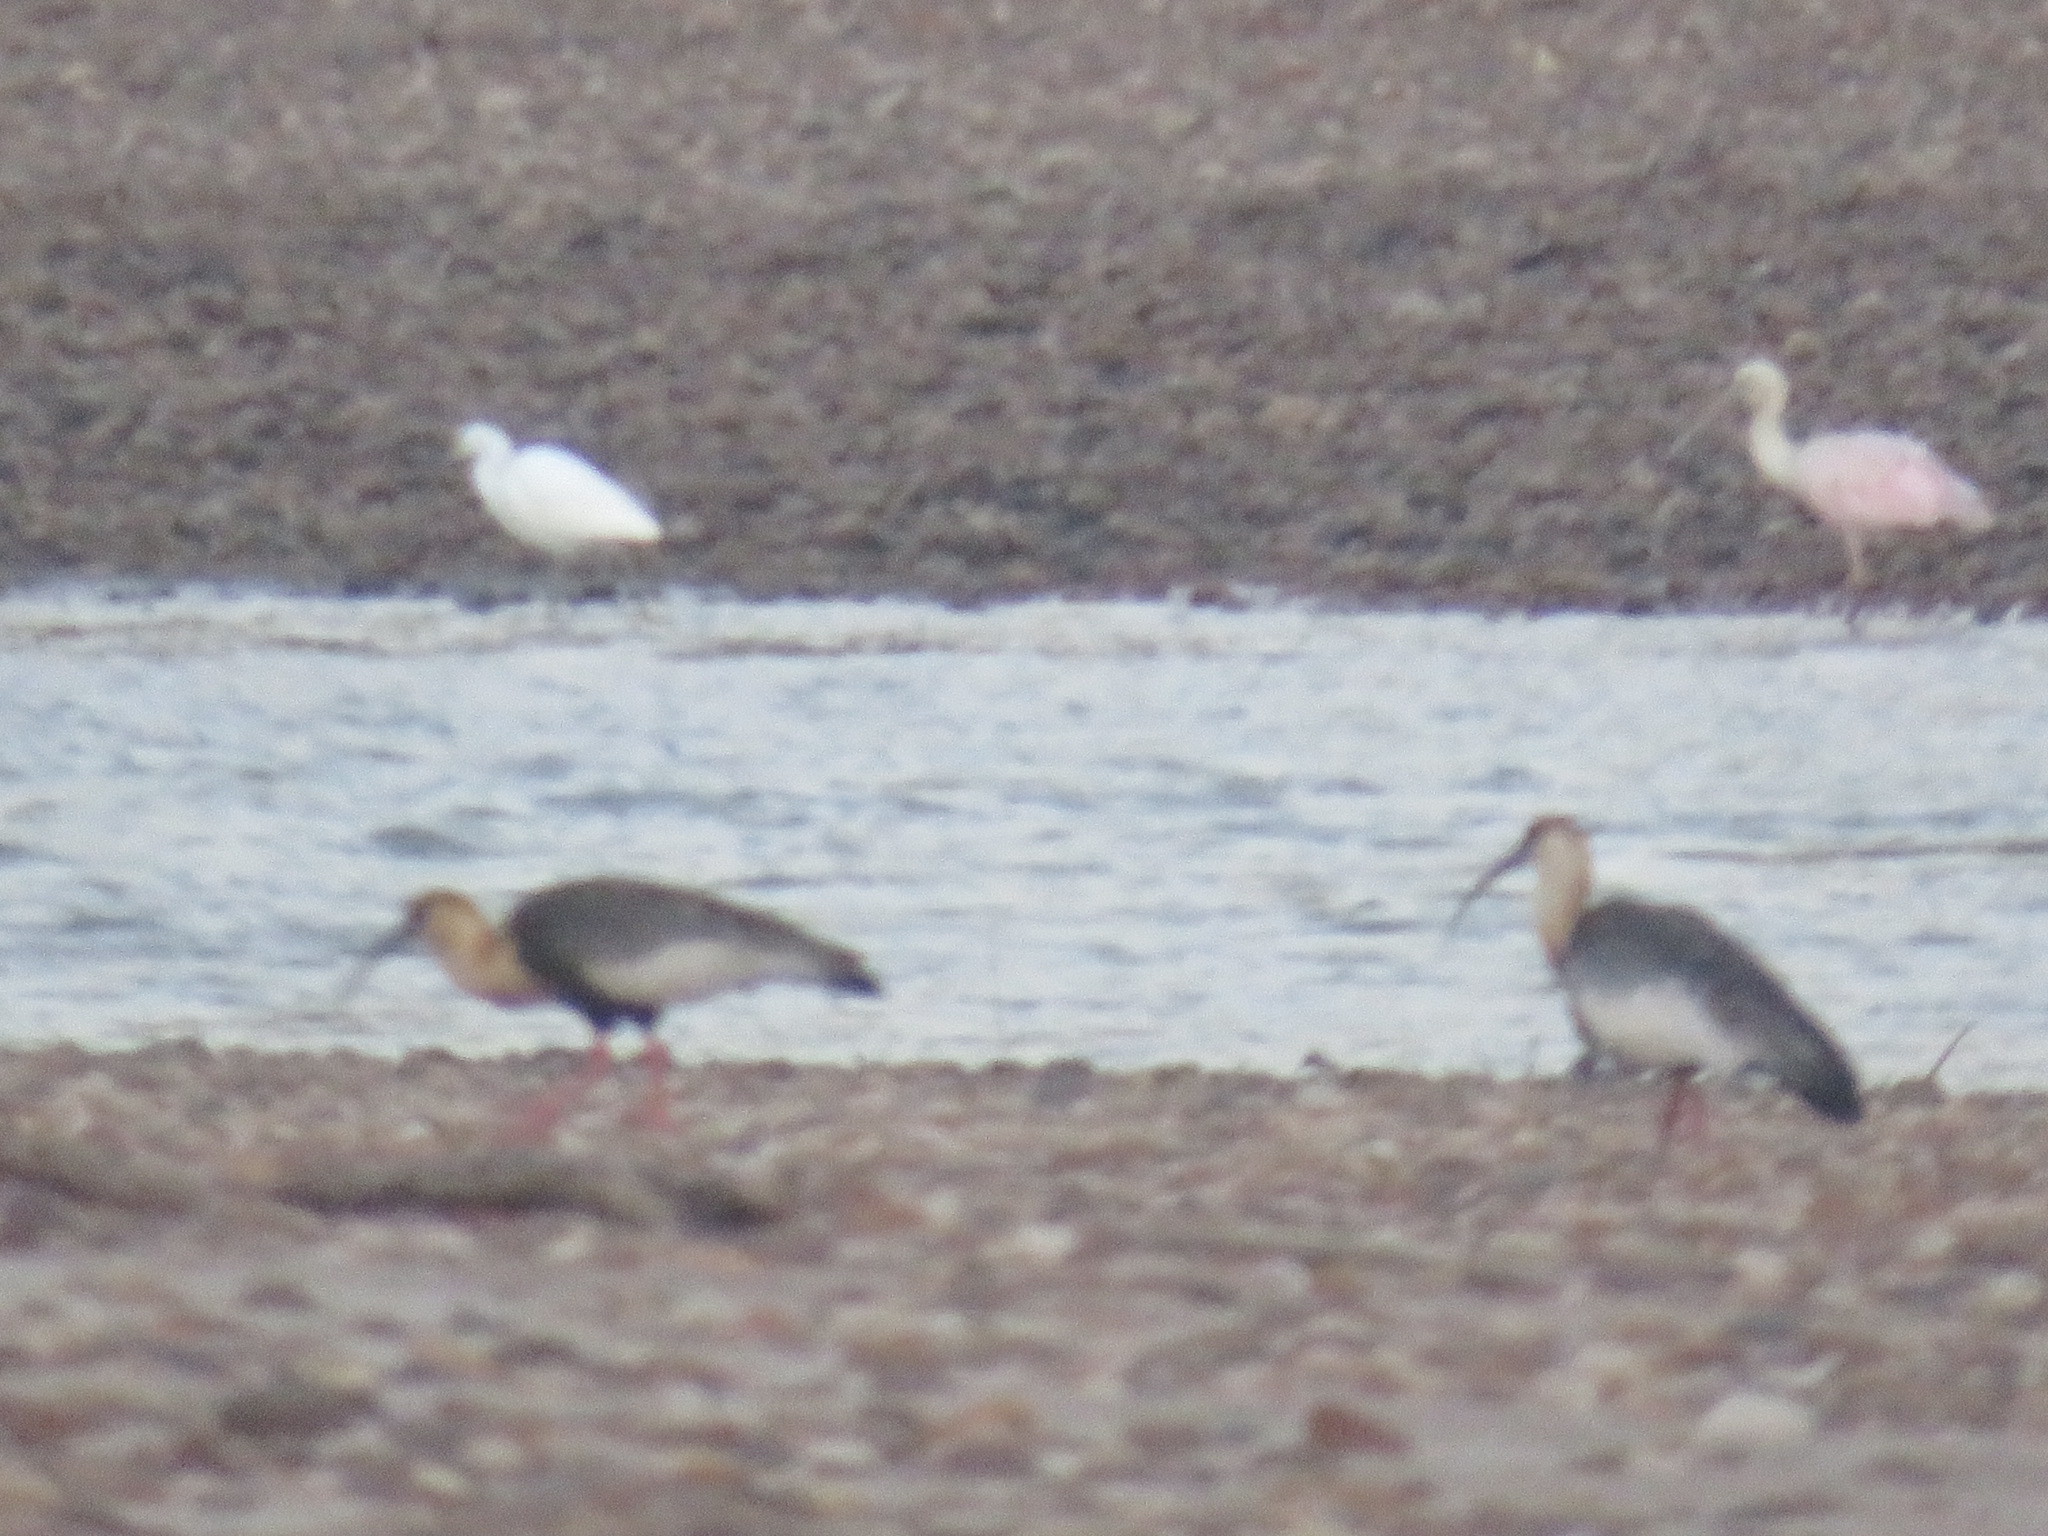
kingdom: Animalia
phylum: Chordata
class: Aves
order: Pelecaniformes
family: Threskiornithidae
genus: Theristicus
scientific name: Theristicus caudatus
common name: Buff-necked ibis
